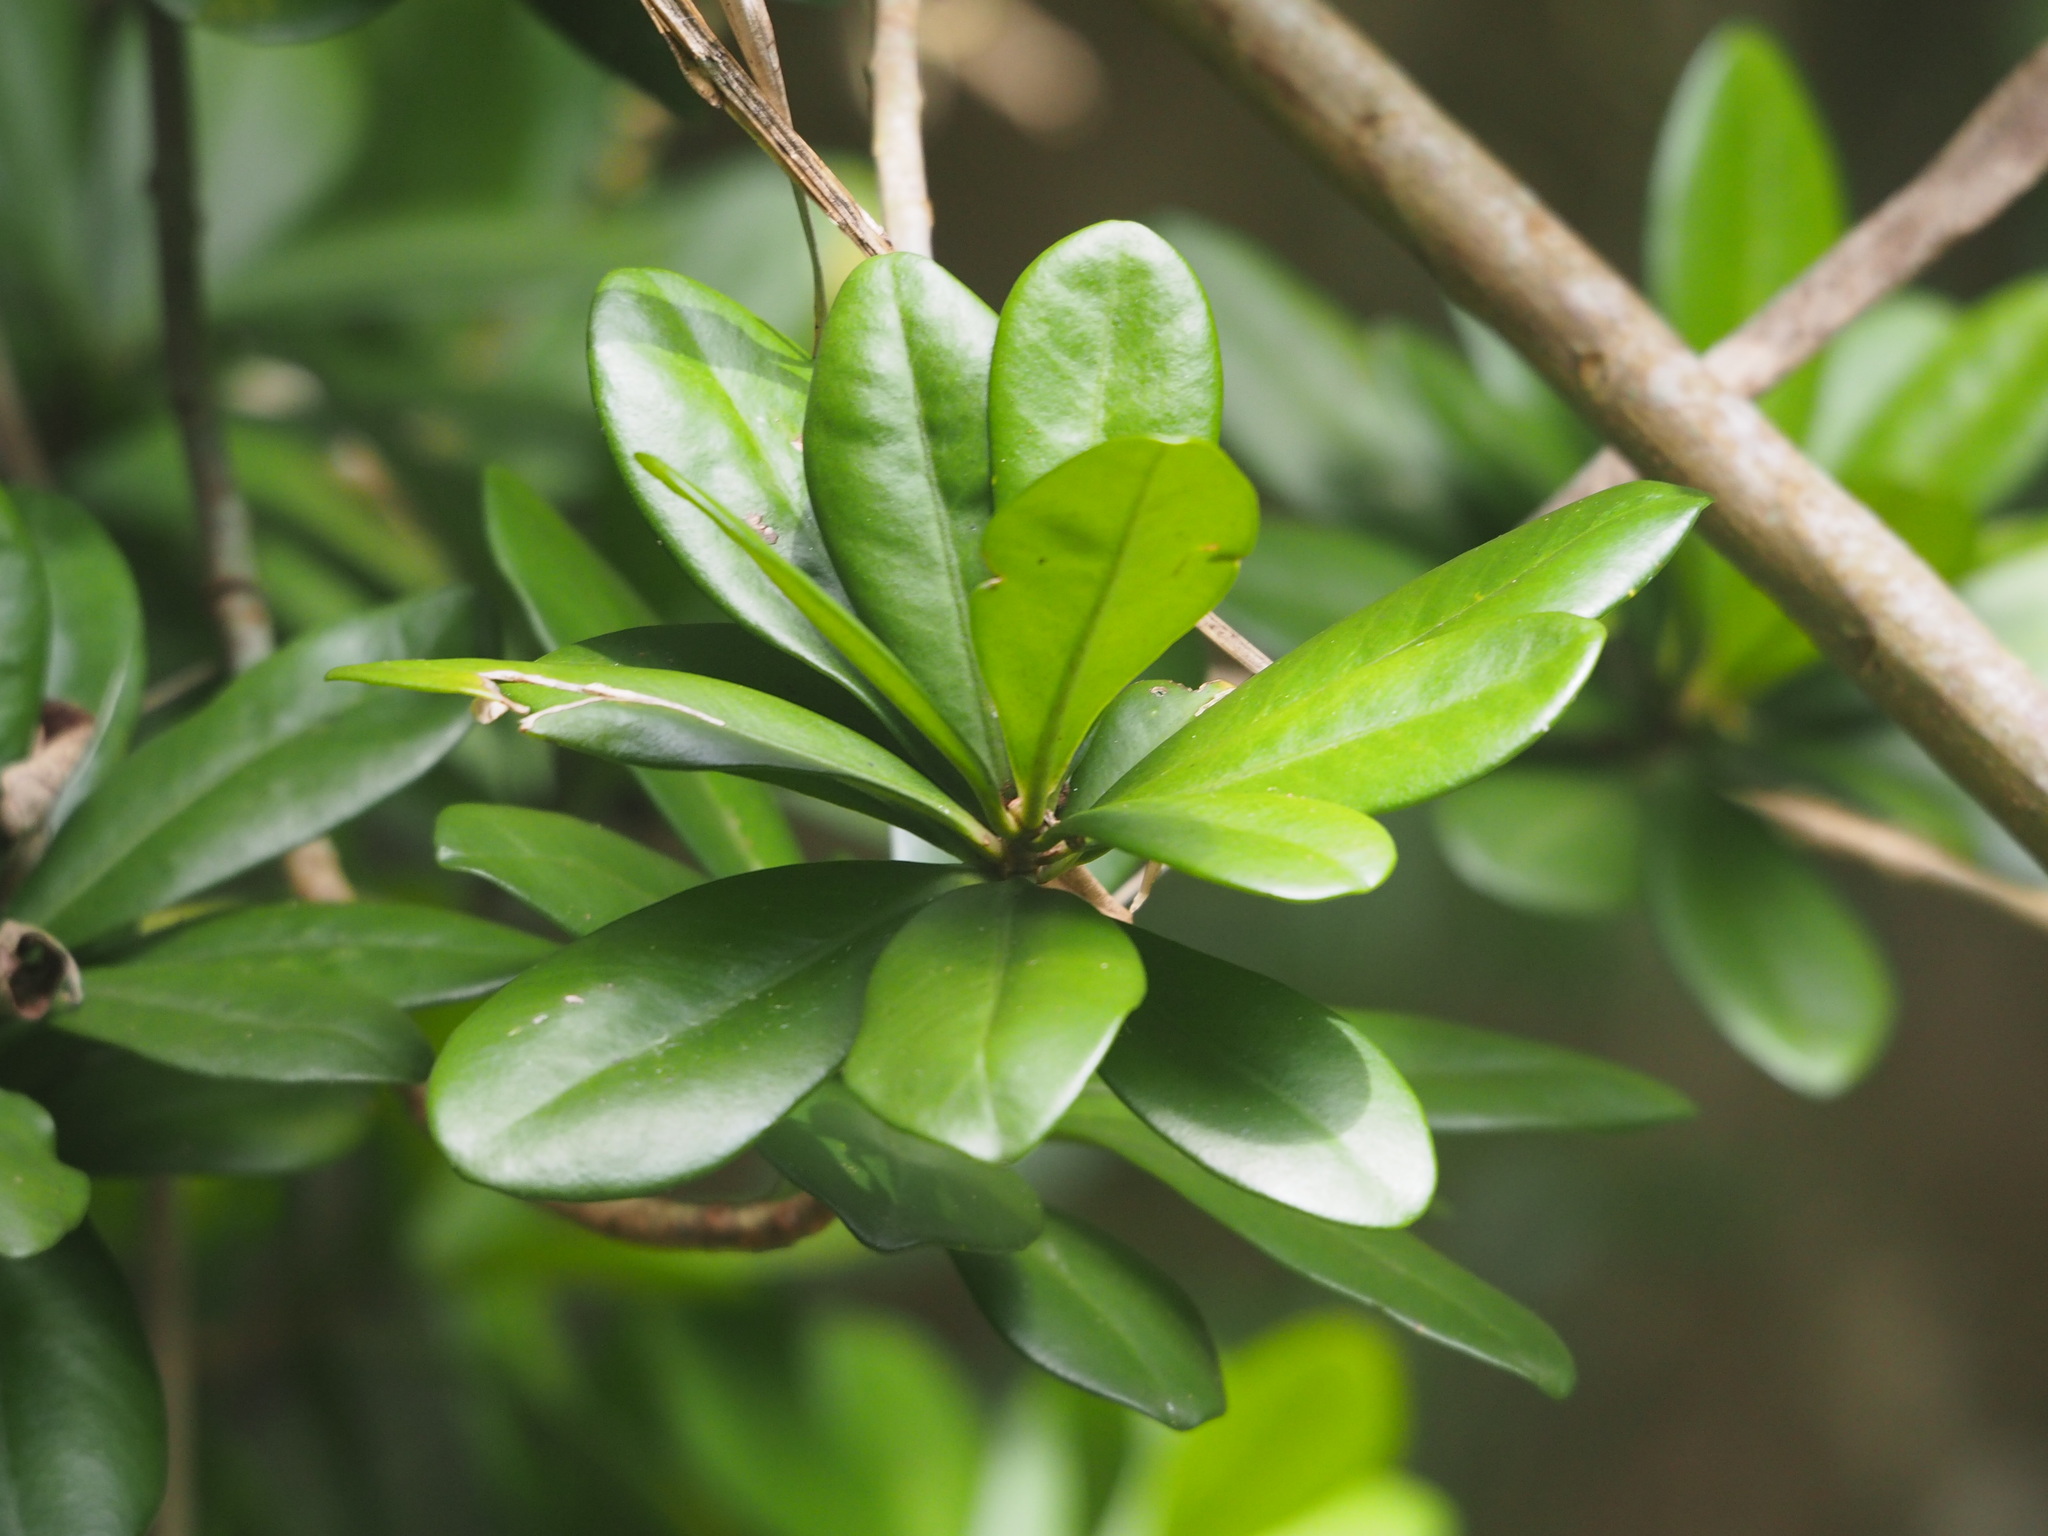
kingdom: Plantae
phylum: Tracheophyta
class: Magnoliopsida
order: Ericales
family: Primulaceae
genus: Ardisia
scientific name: Ardisia elliptica
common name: Shoebutton
